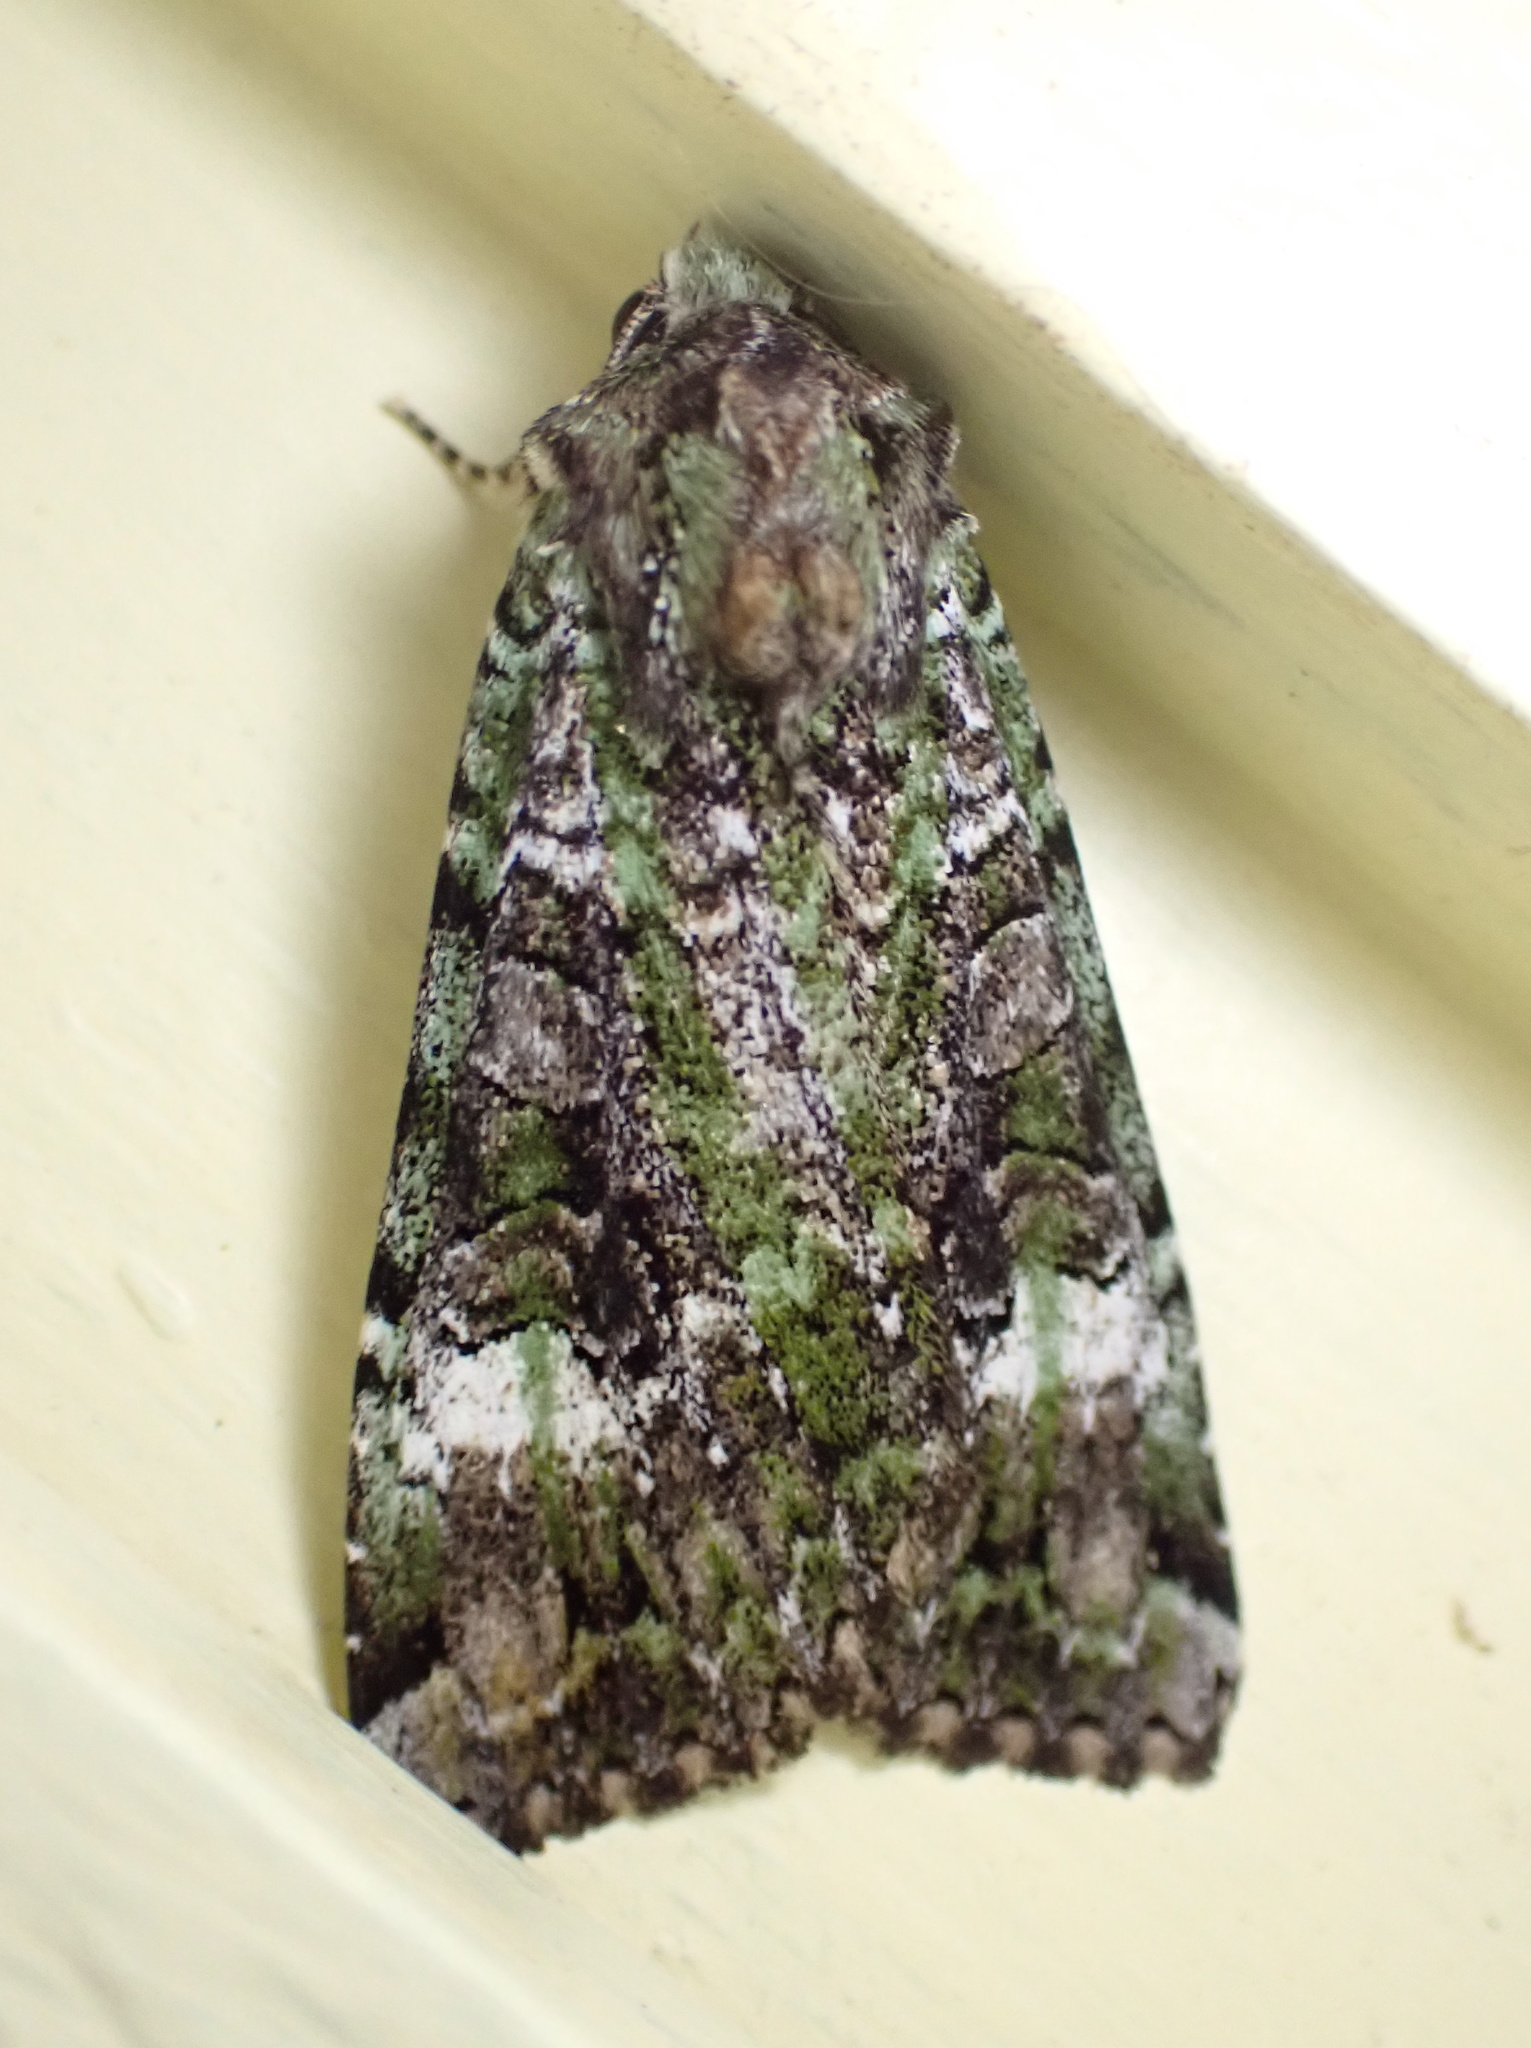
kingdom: Animalia
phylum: Arthropoda
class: Insecta
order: Lepidoptera
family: Noctuidae
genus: Anaplectoides
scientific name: Anaplectoides prasina
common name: Green arches
